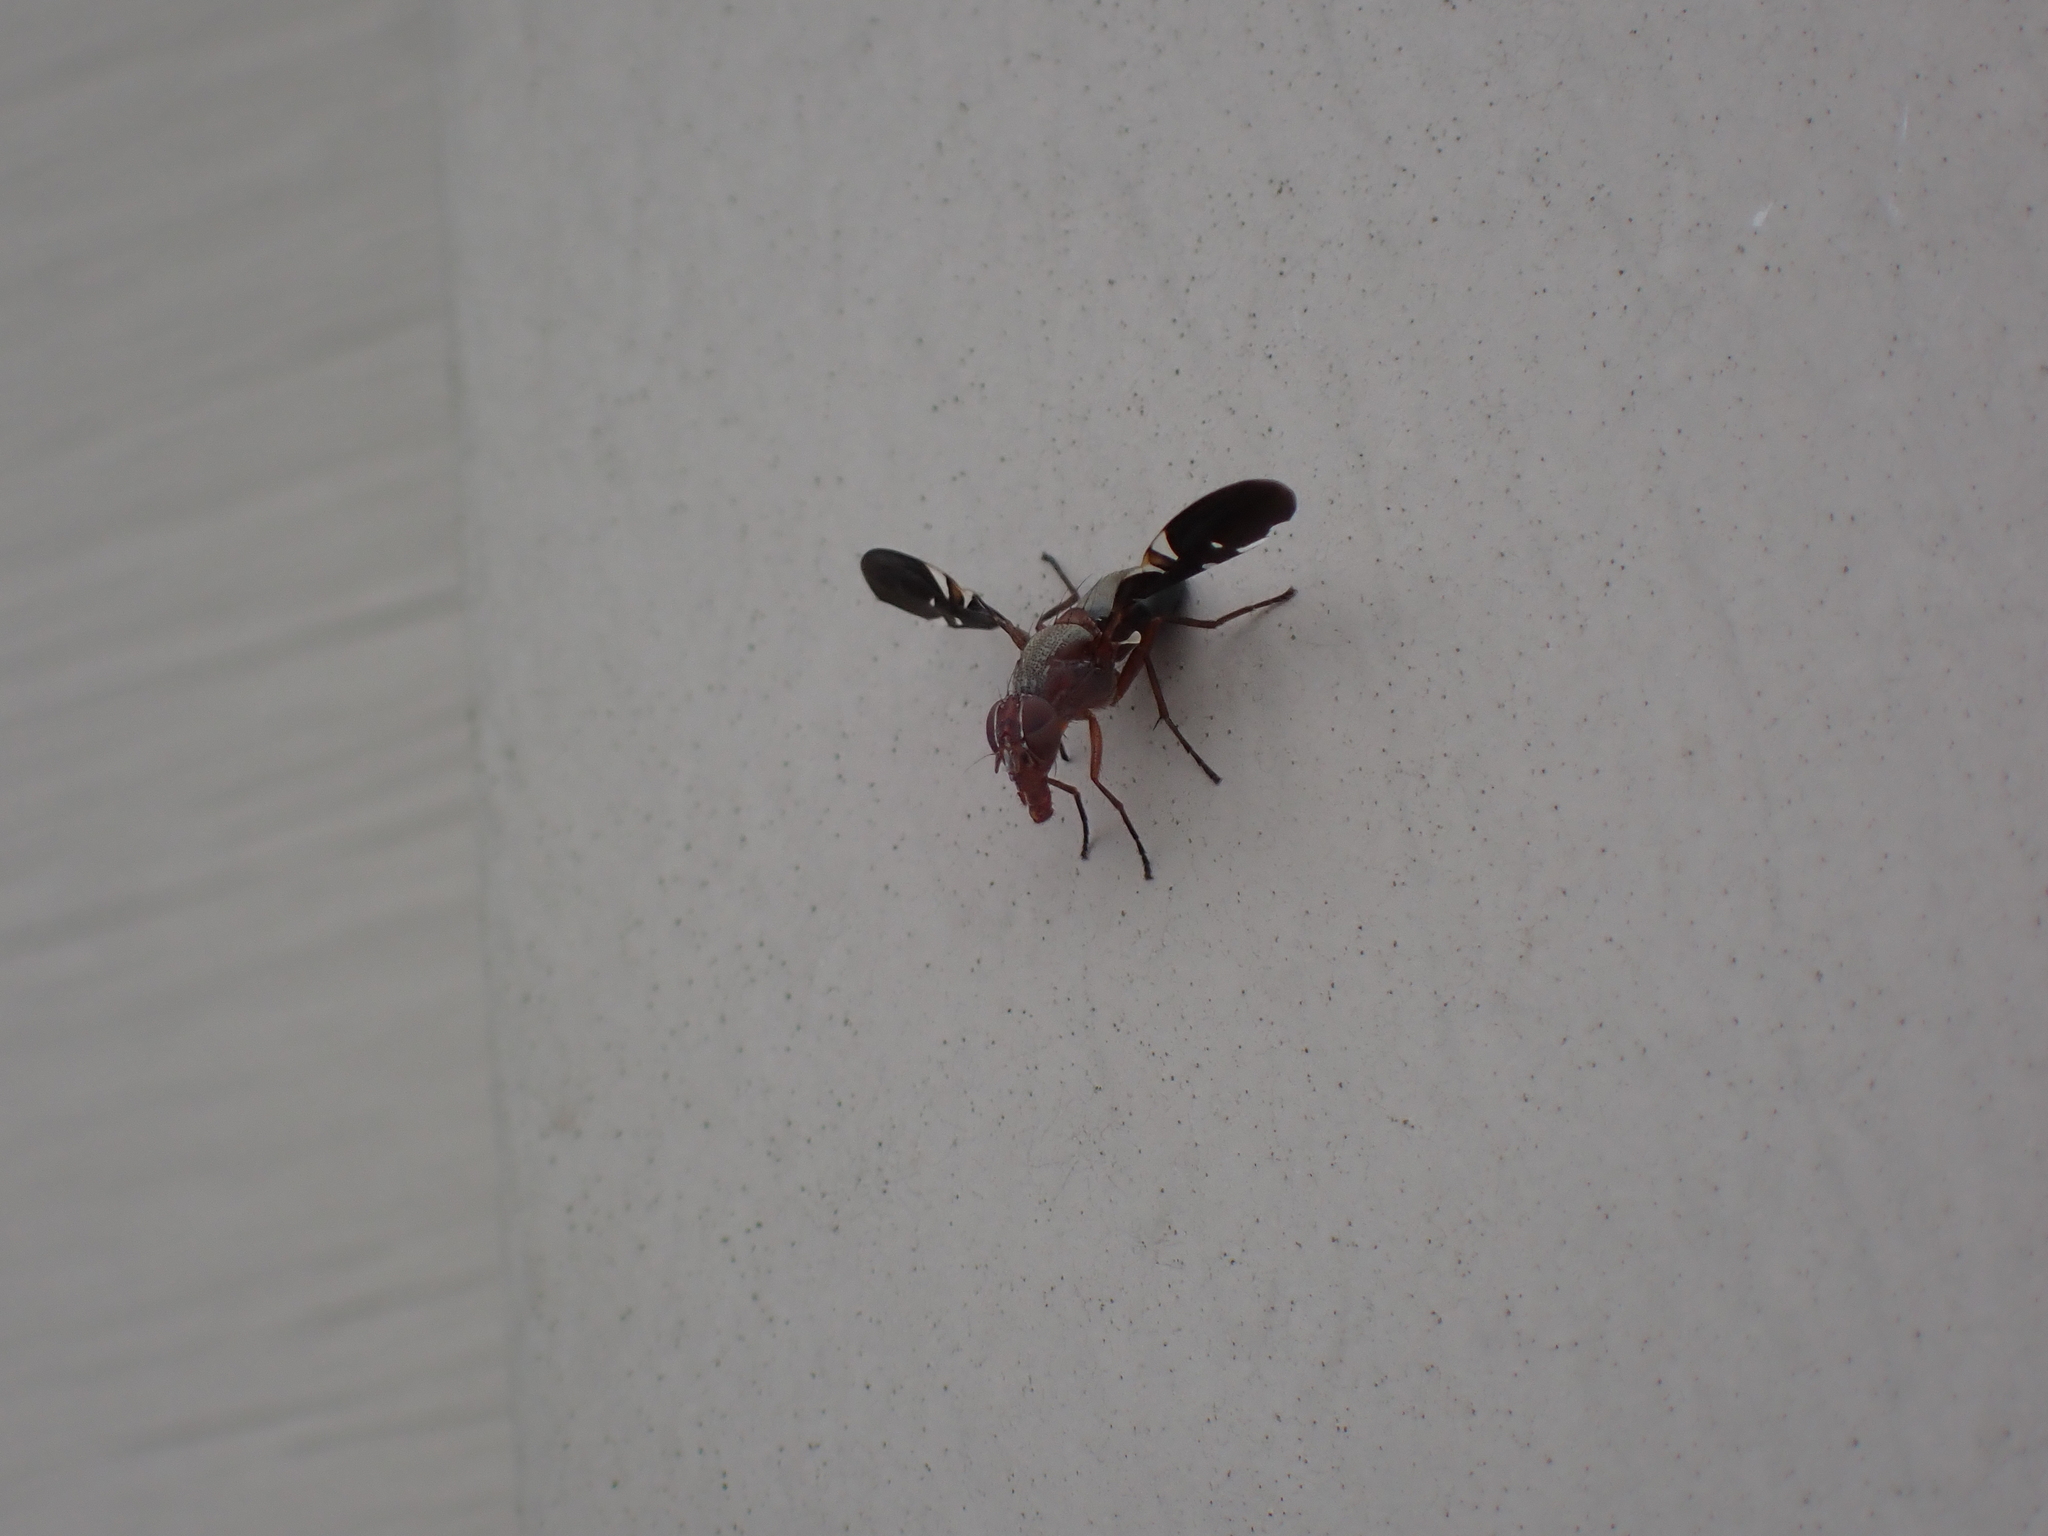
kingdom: Animalia
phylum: Arthropoda
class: Insecta
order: Diptera
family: Ulidiidae
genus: Delphinia
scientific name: Delphinia picta
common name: Common picture-winged fly
